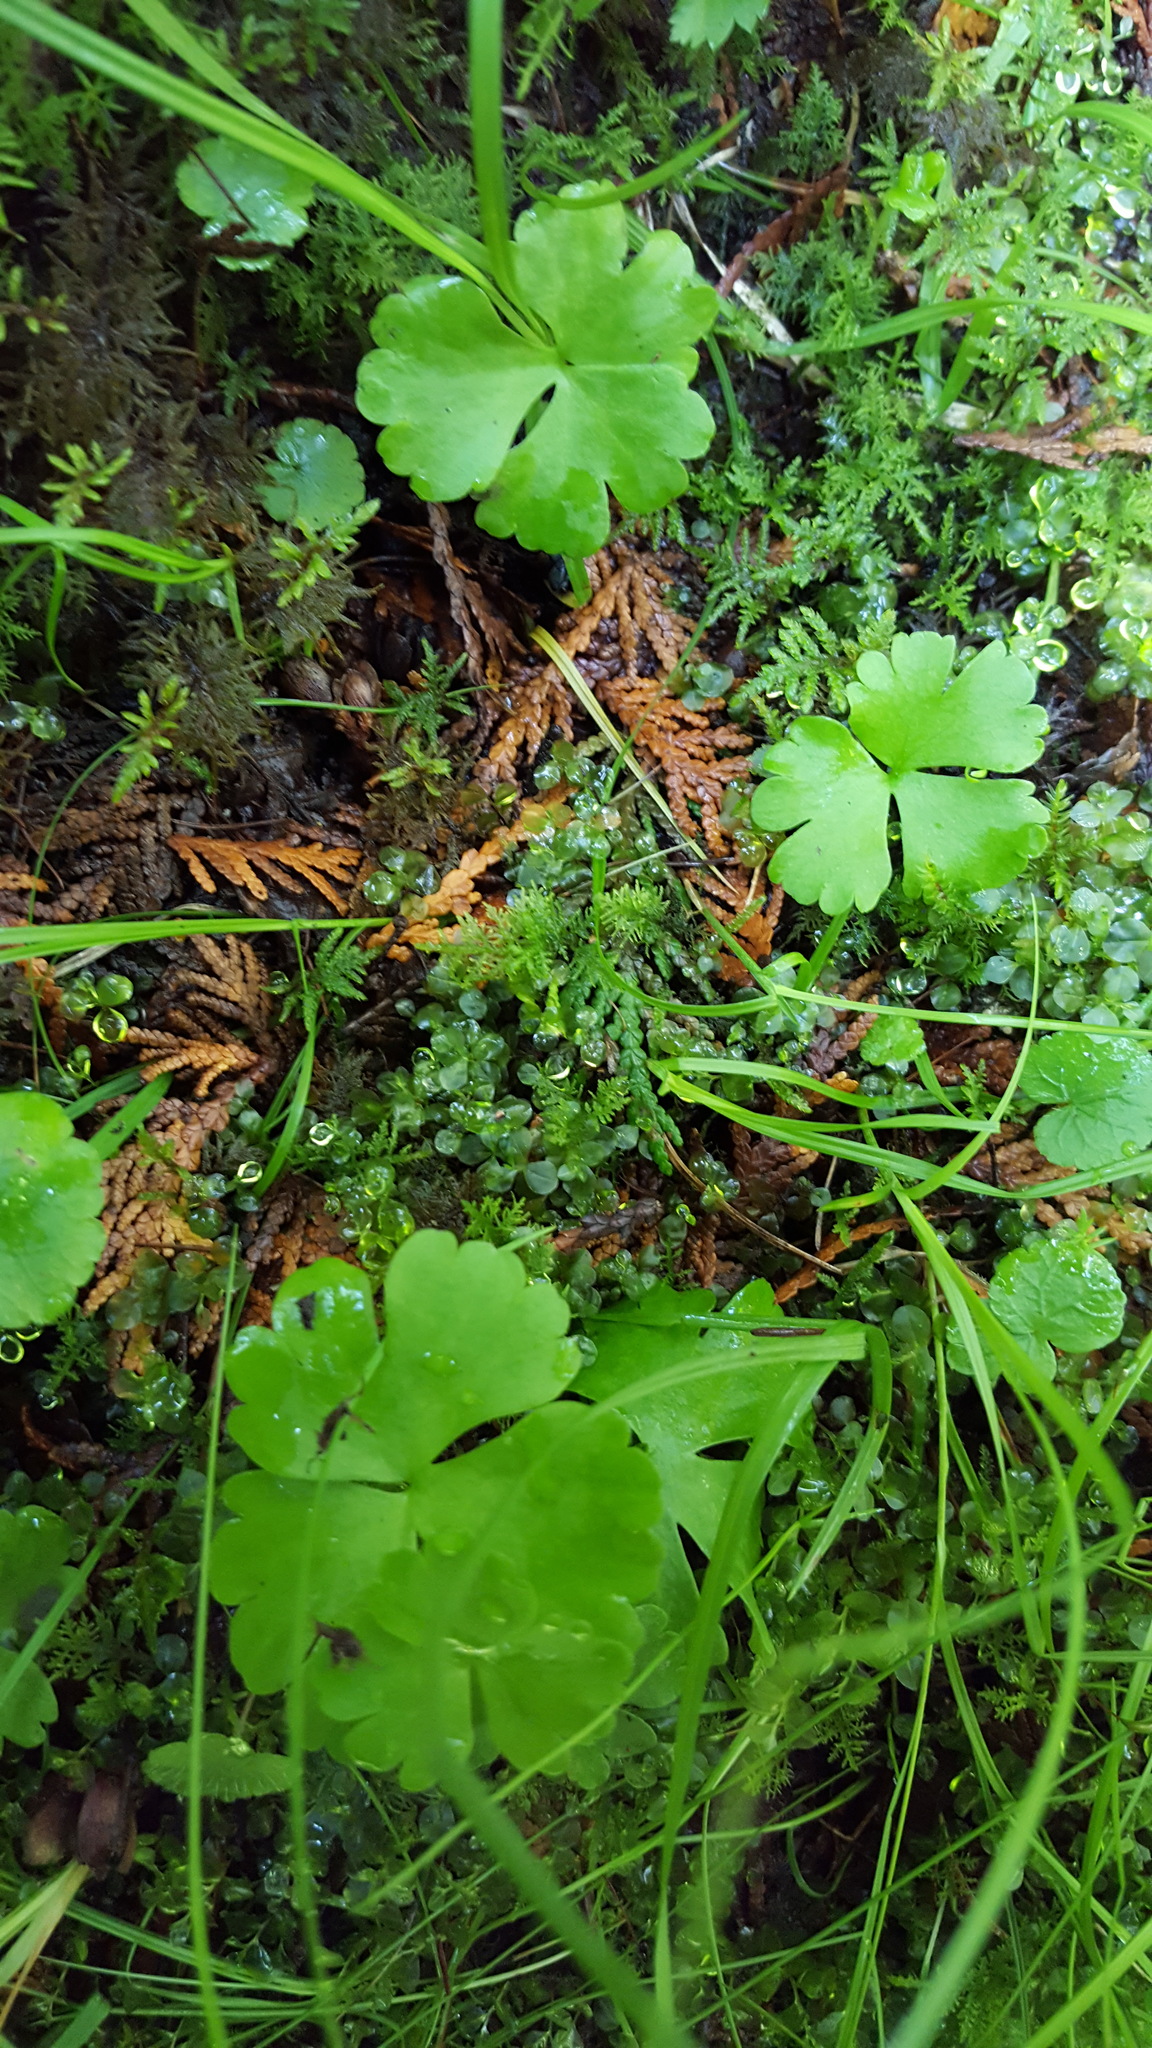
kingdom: Plantae
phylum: Tracheophyta
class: Magnoliopsida
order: Ranunculales
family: Ranunculaceae
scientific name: Ranunculaceae
